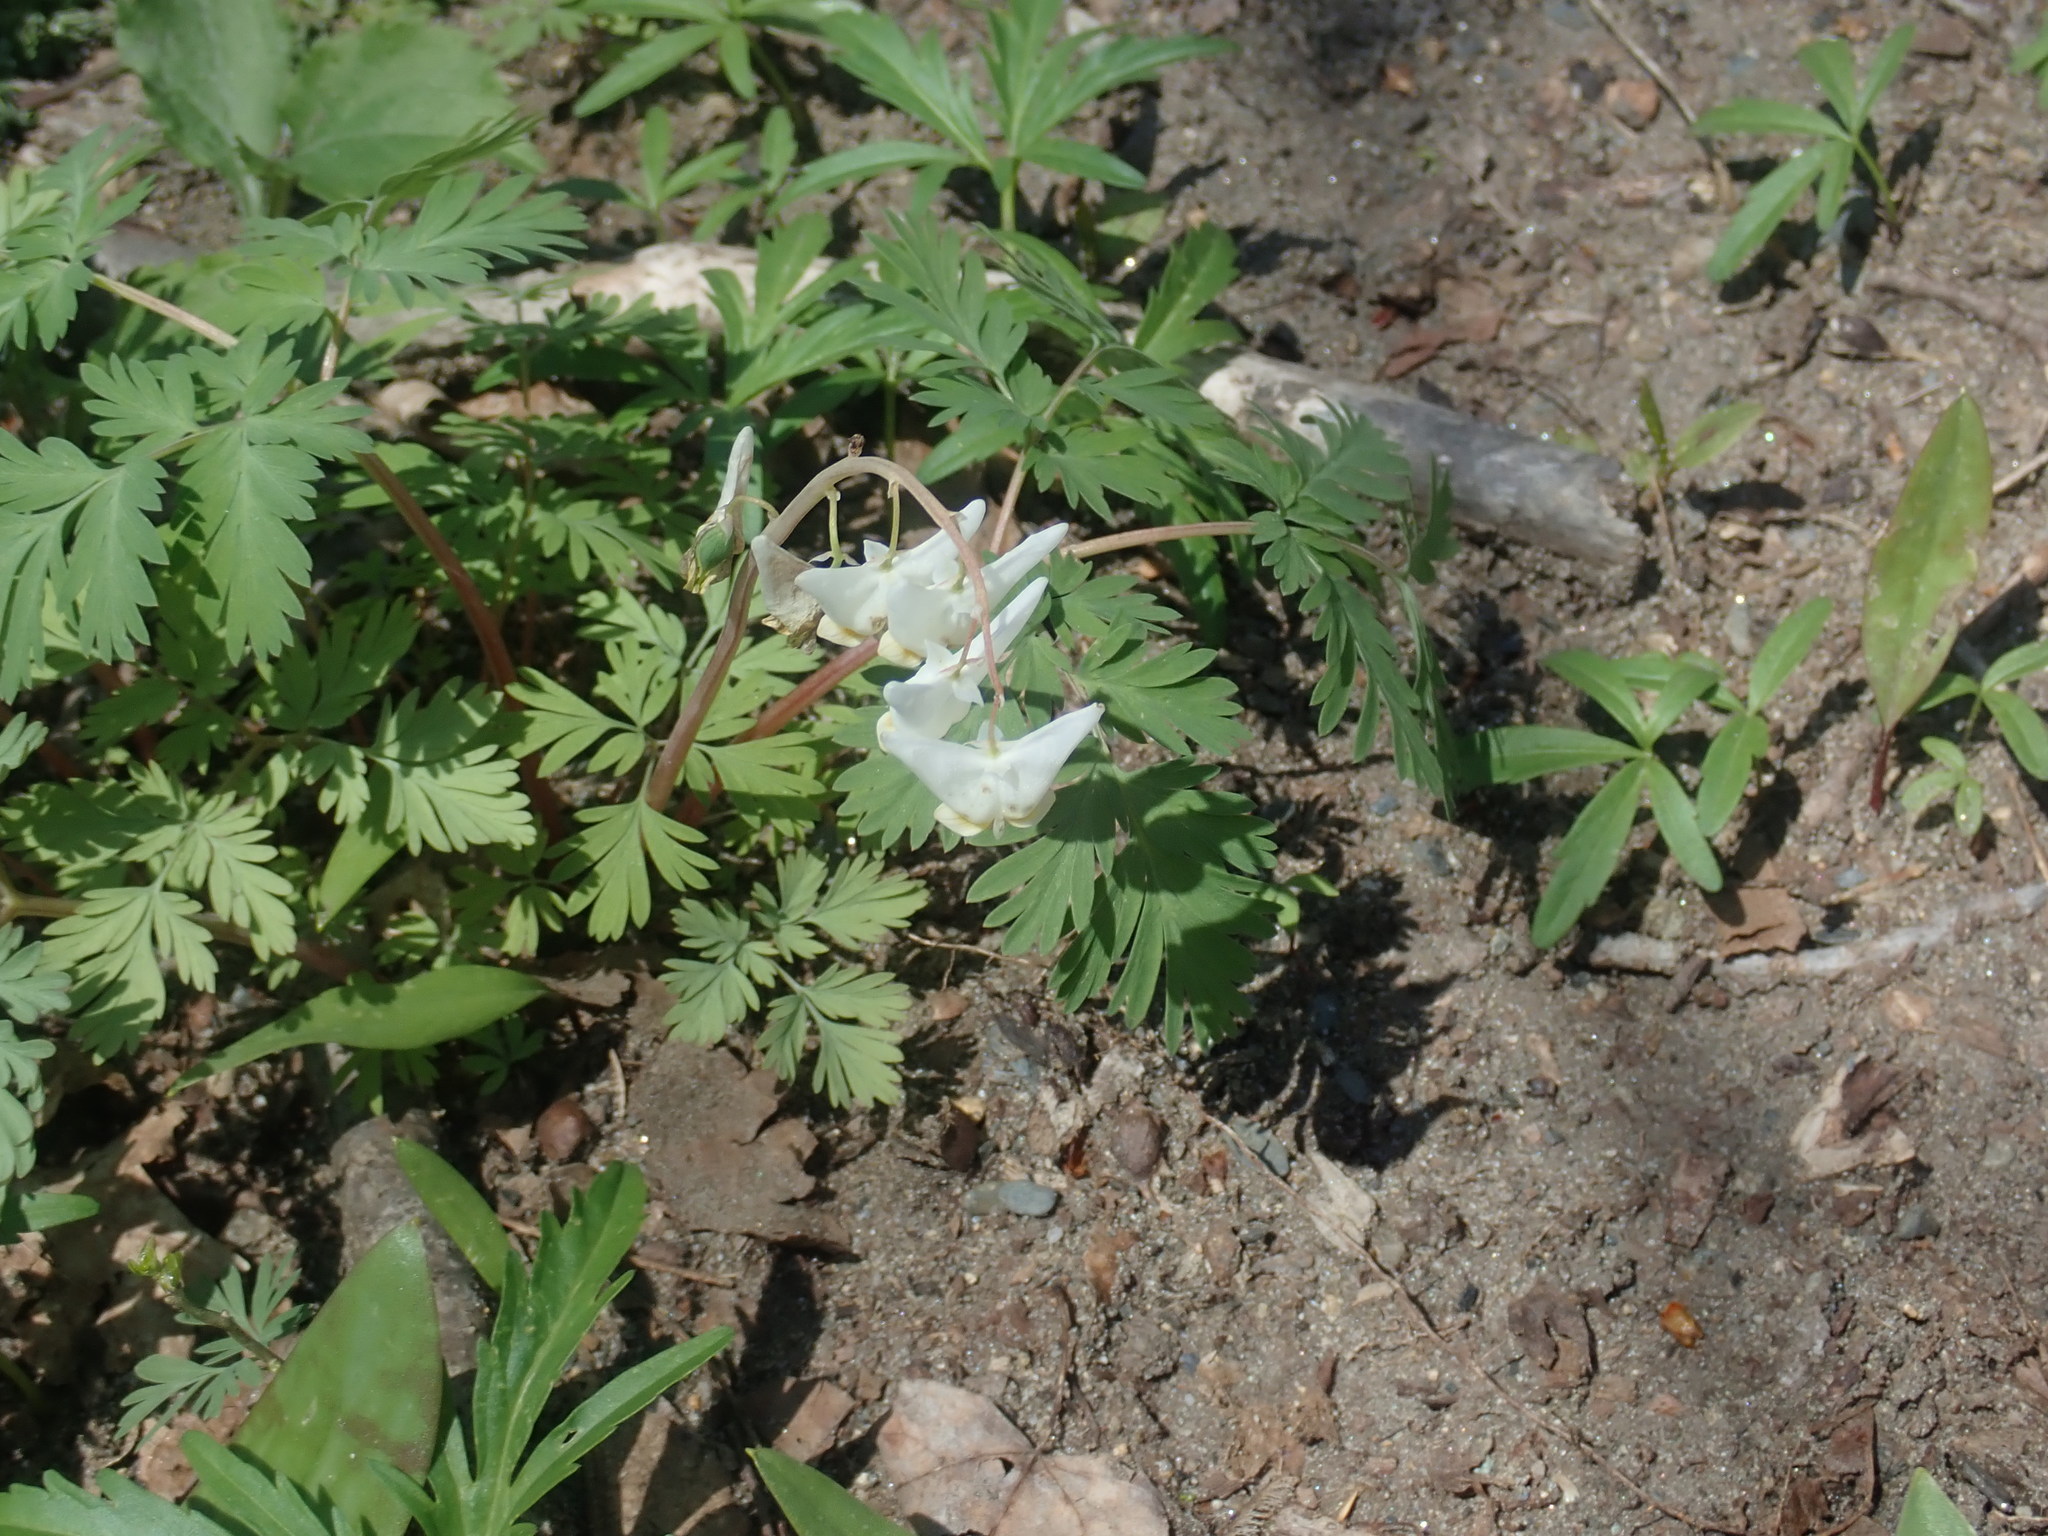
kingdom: Plantae
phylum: Tracheophyta
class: Magnoliopsida
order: Ranunculales
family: Papaveraceae
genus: Dicentra
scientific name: Dicentra cucullaria
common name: Dutchman's breeches
